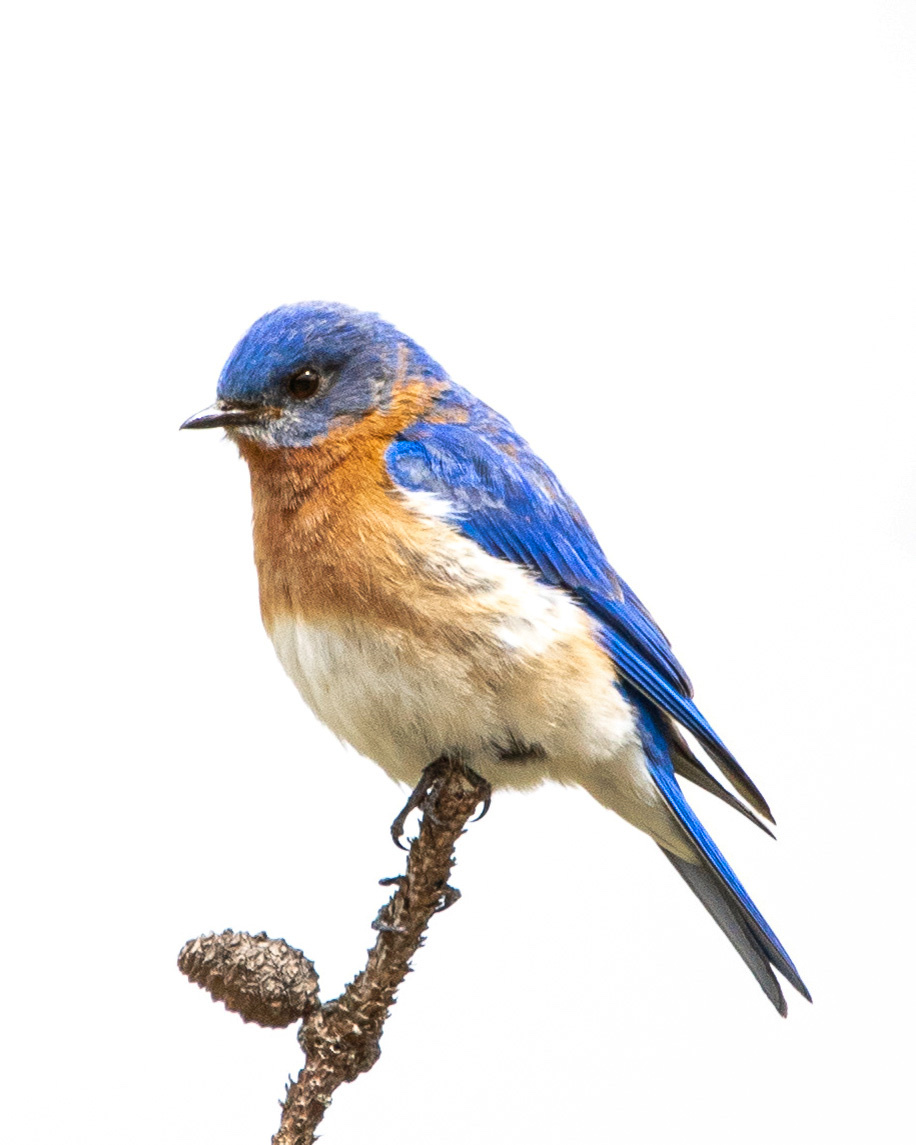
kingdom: Animalia
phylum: Chordata
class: Aves
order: Passeriformes
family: Turdidae
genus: Sialia
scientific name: Sialia sialis
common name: Eastern bluebird
